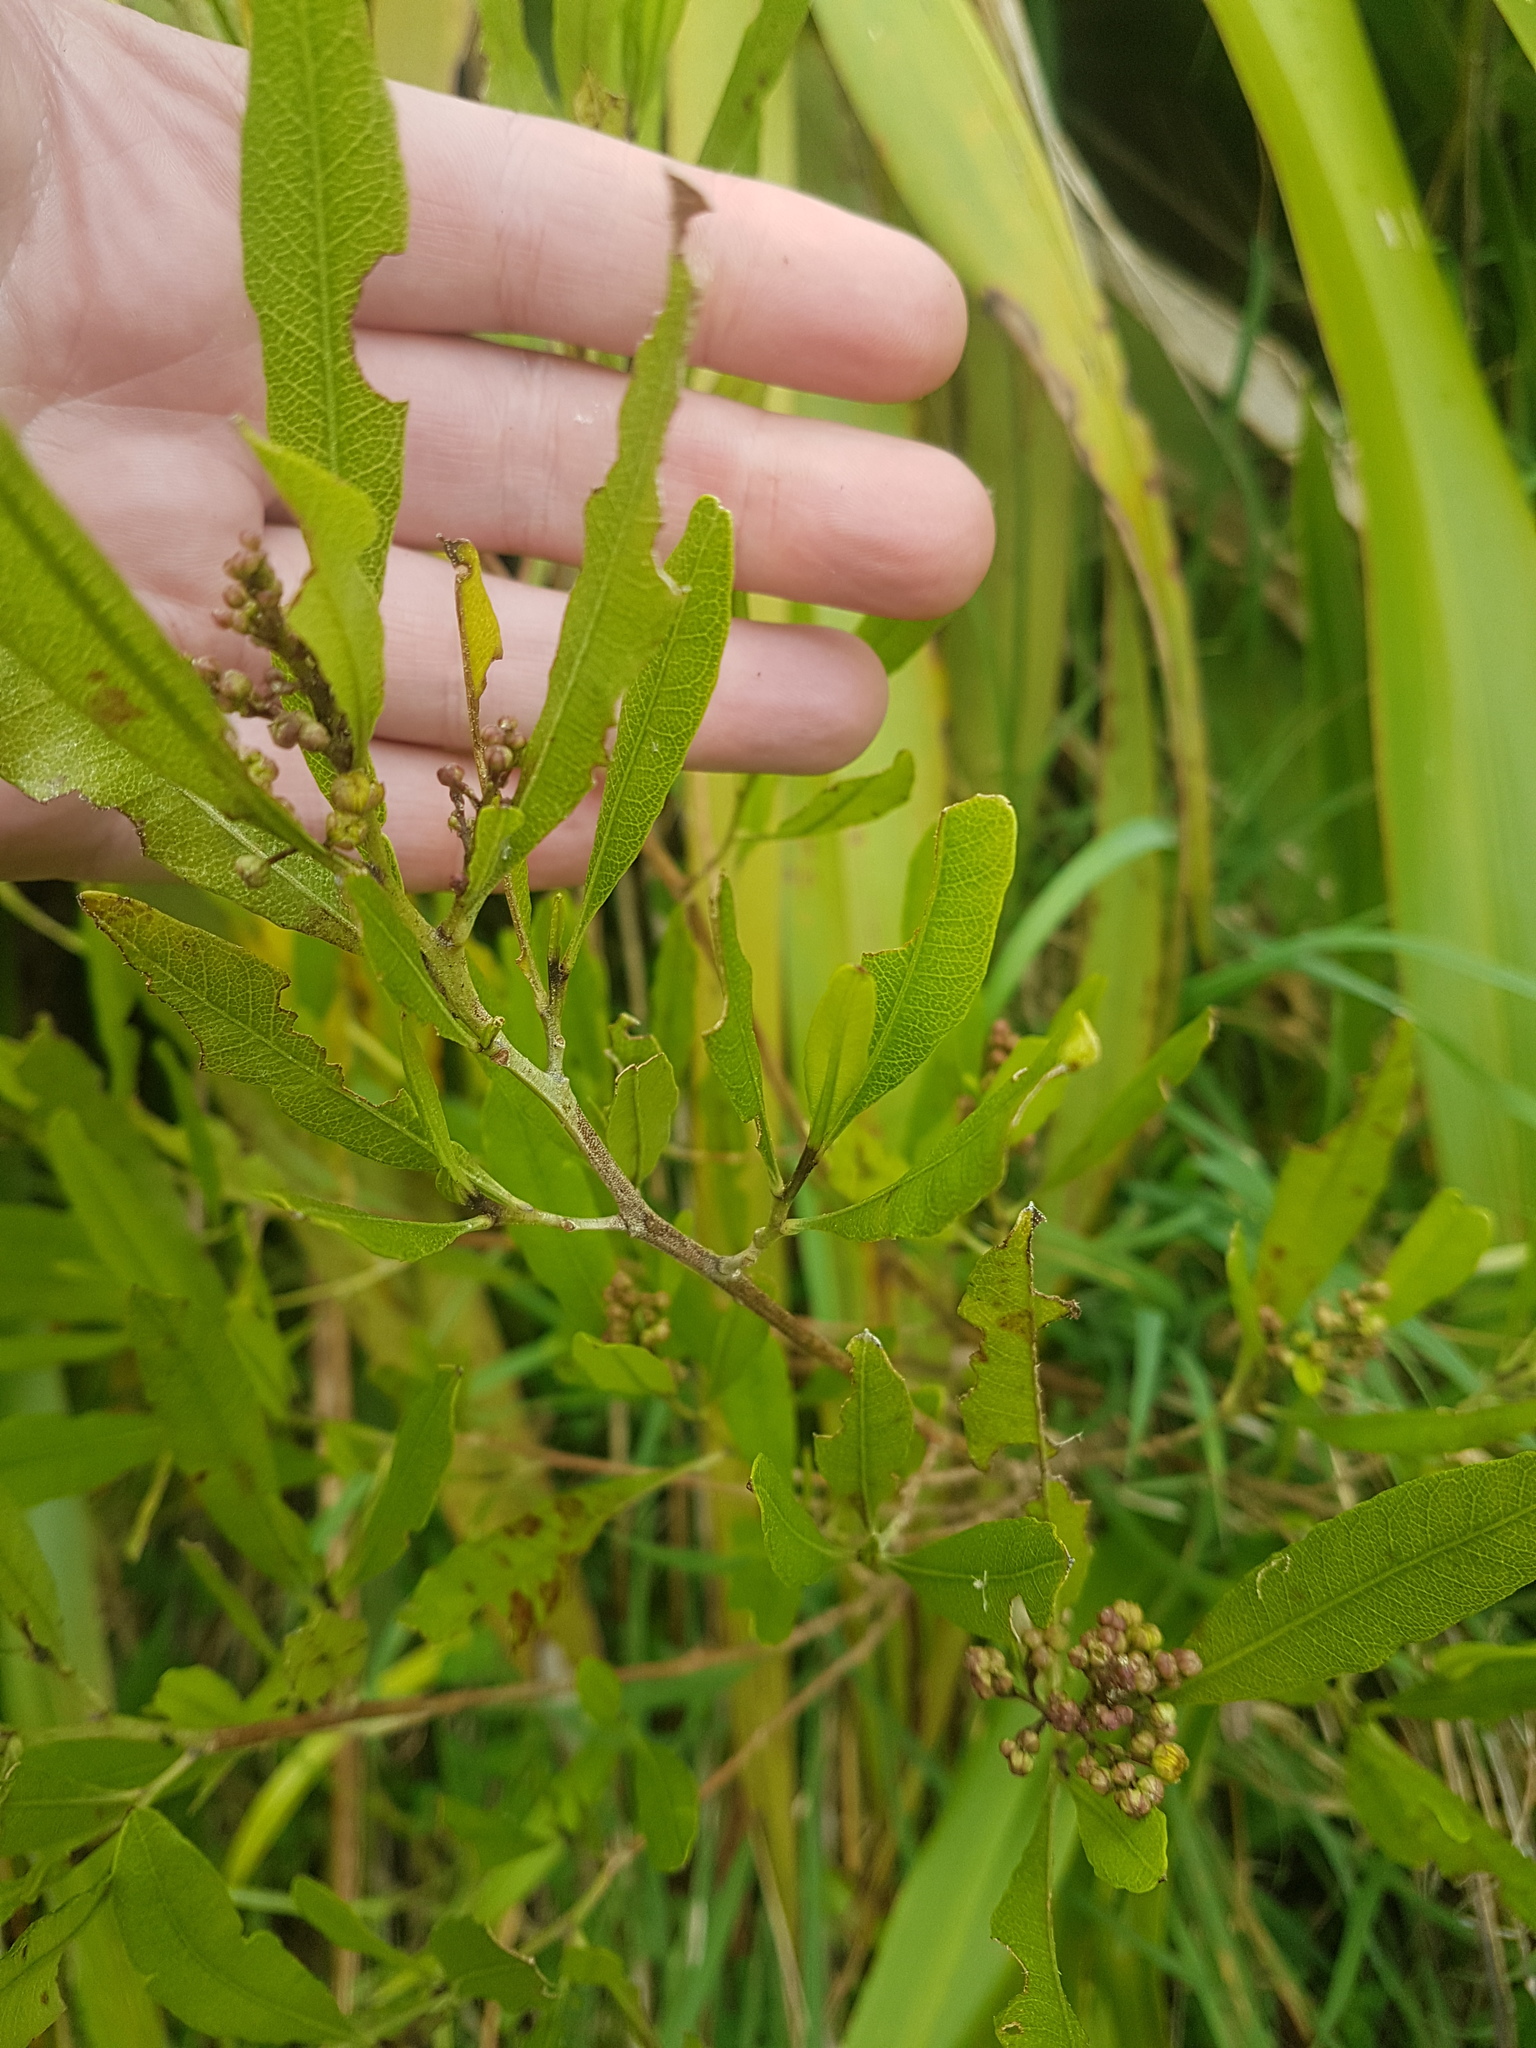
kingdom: Plantae
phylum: Tracheophyta
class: Magnoliopsida
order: Sapindales
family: Sapindaceae
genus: Dodonaea
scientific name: Dodonaea viscosa
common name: Hopbush
